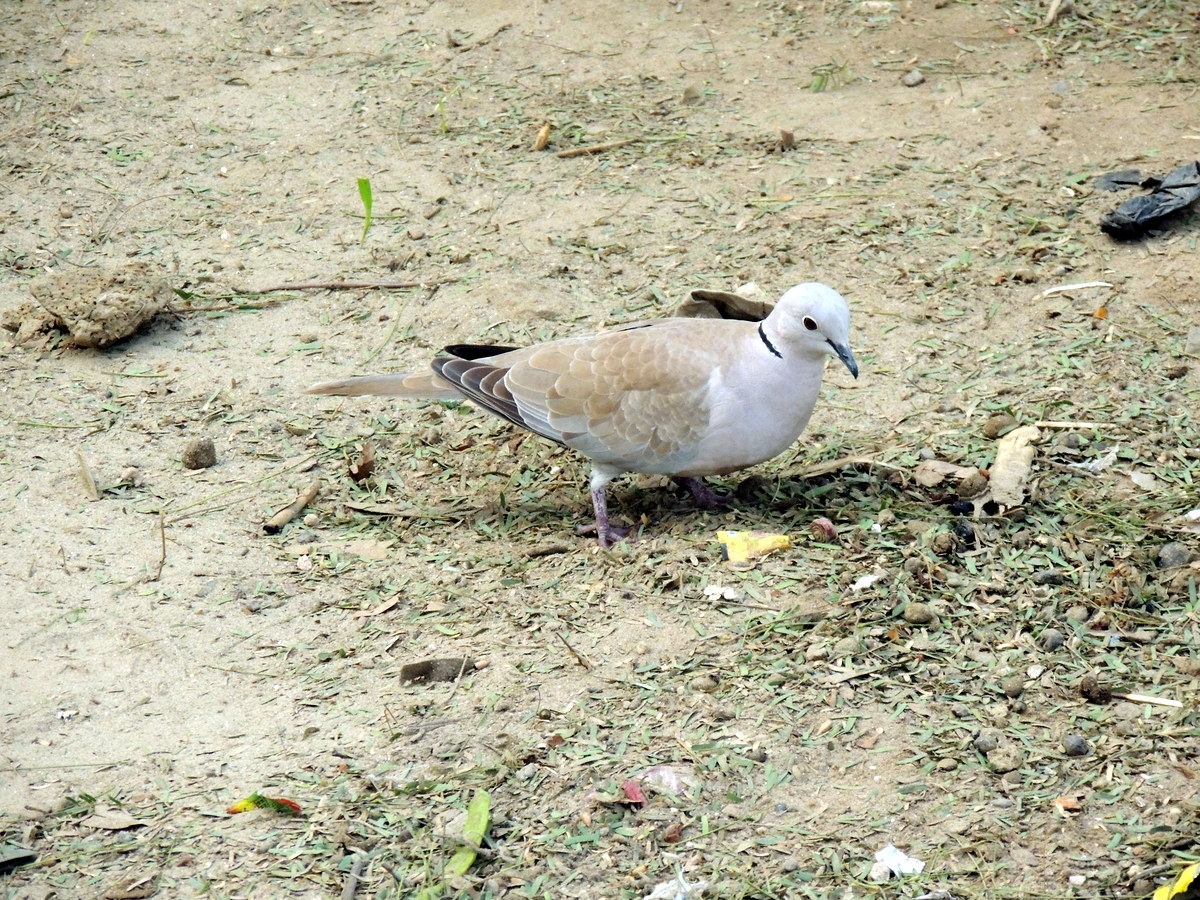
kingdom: Animalia
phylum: Chordata
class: Aves
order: Columbiformes
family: Columbidae
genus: Streptopelia
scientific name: Streptopelia decaocto
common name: Eurasian collared dove
